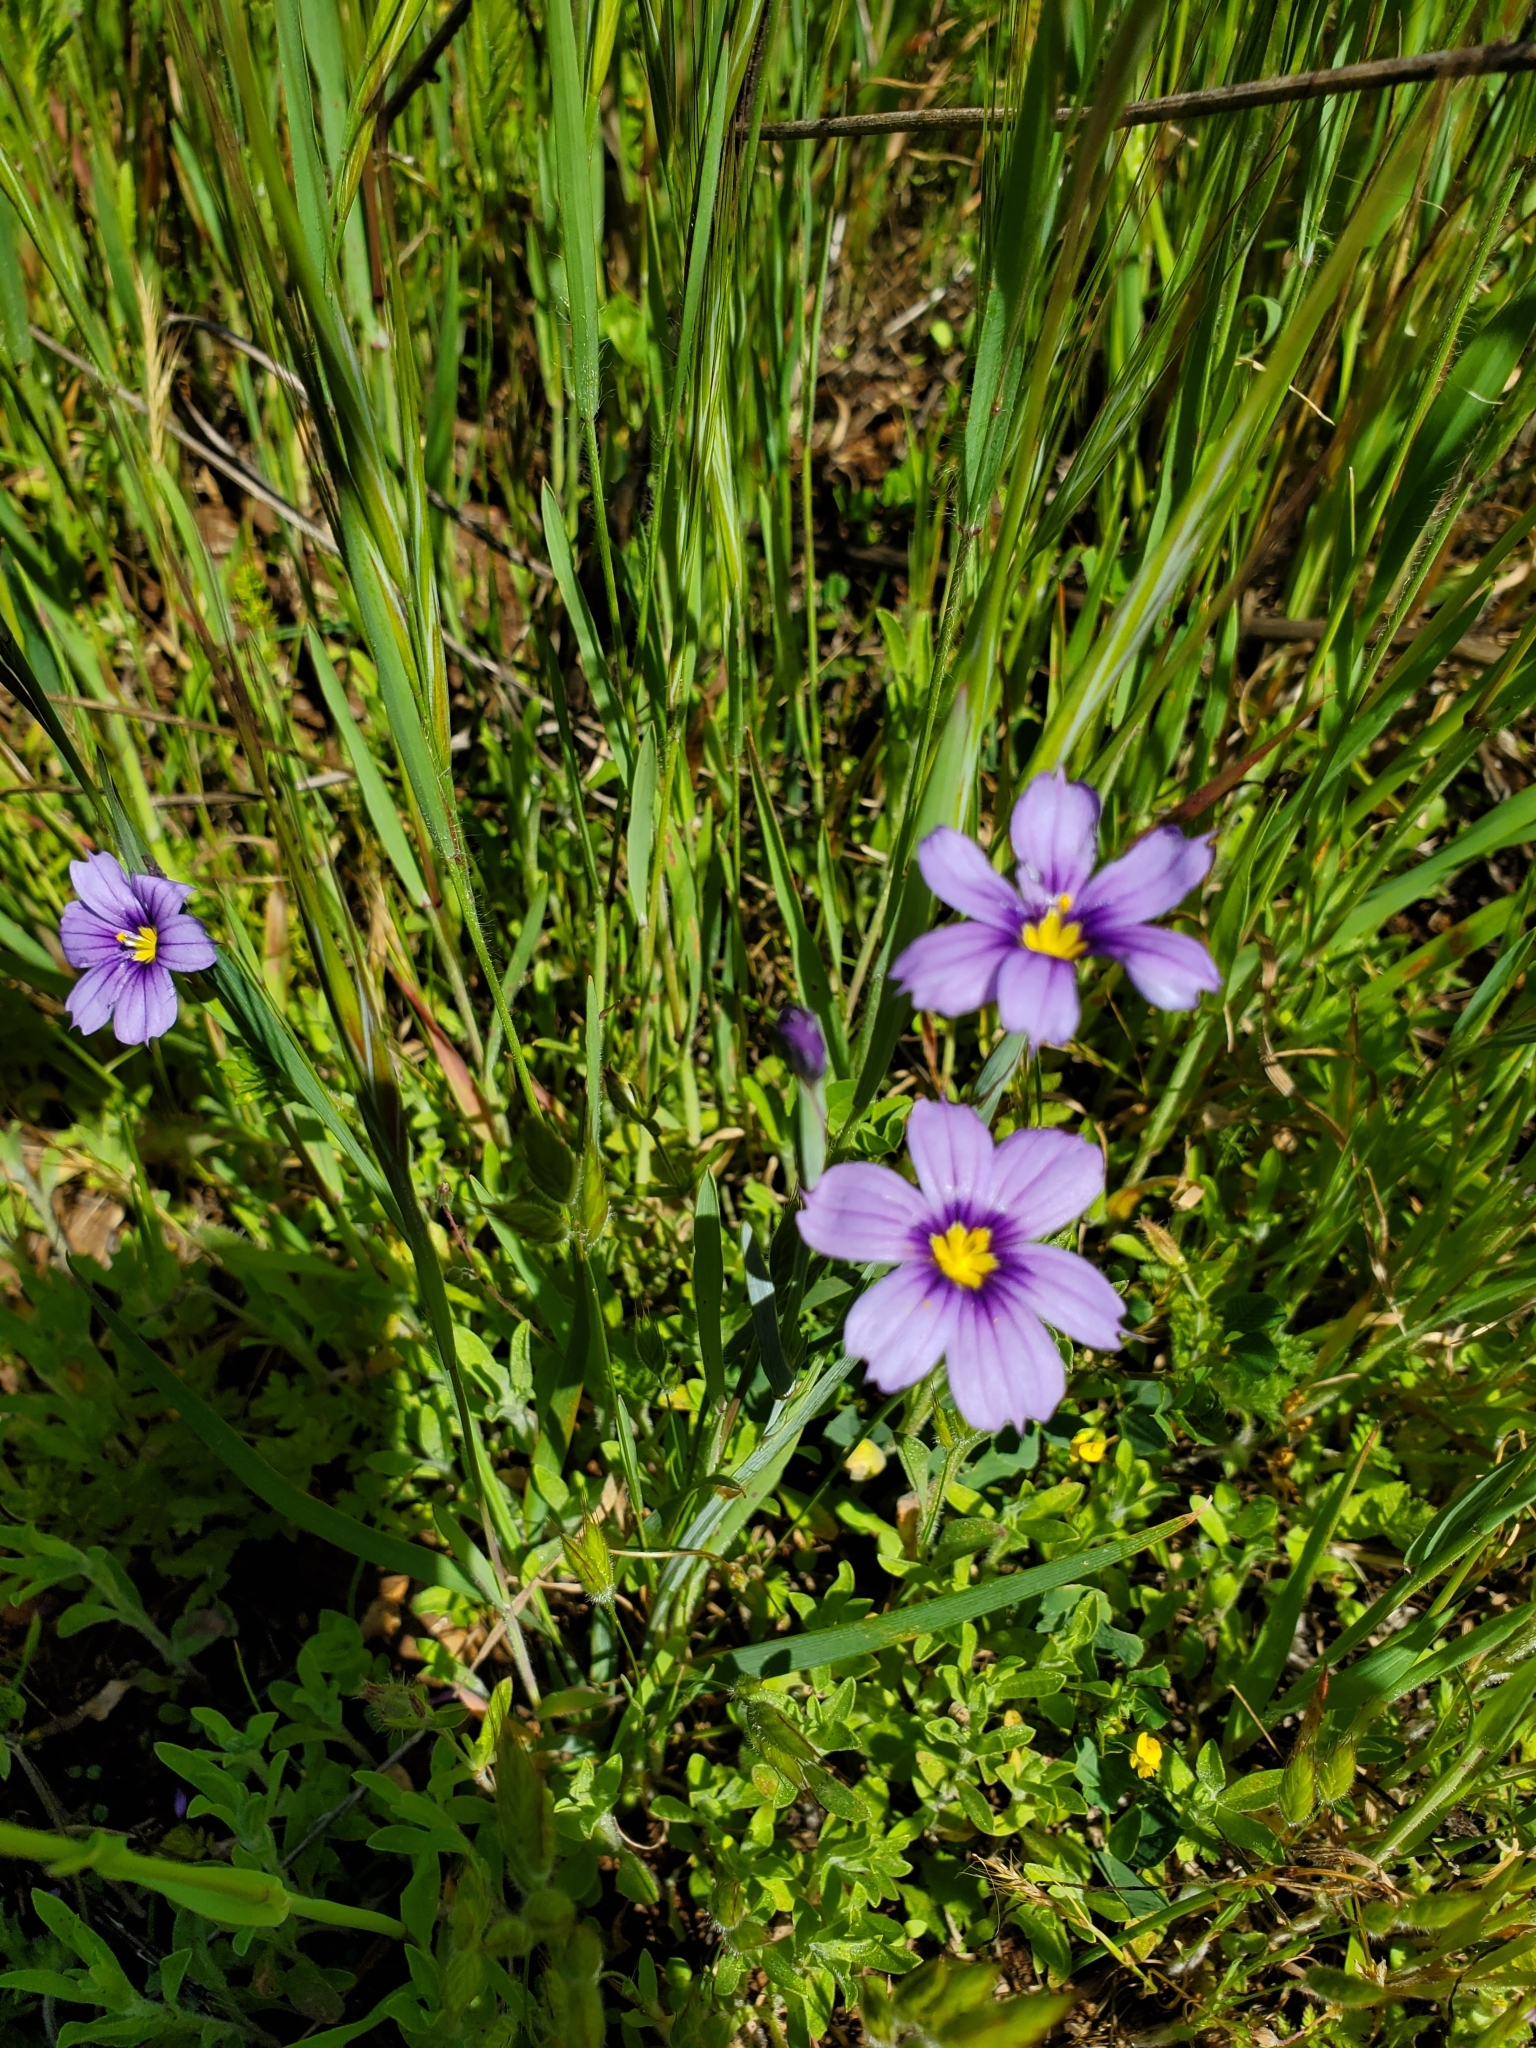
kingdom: Plantae
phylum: Tracheophyta
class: Liliopsida
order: Asparagales
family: Iridaceae
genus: Sisyrinchium
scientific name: Sisyrinchium bellum
